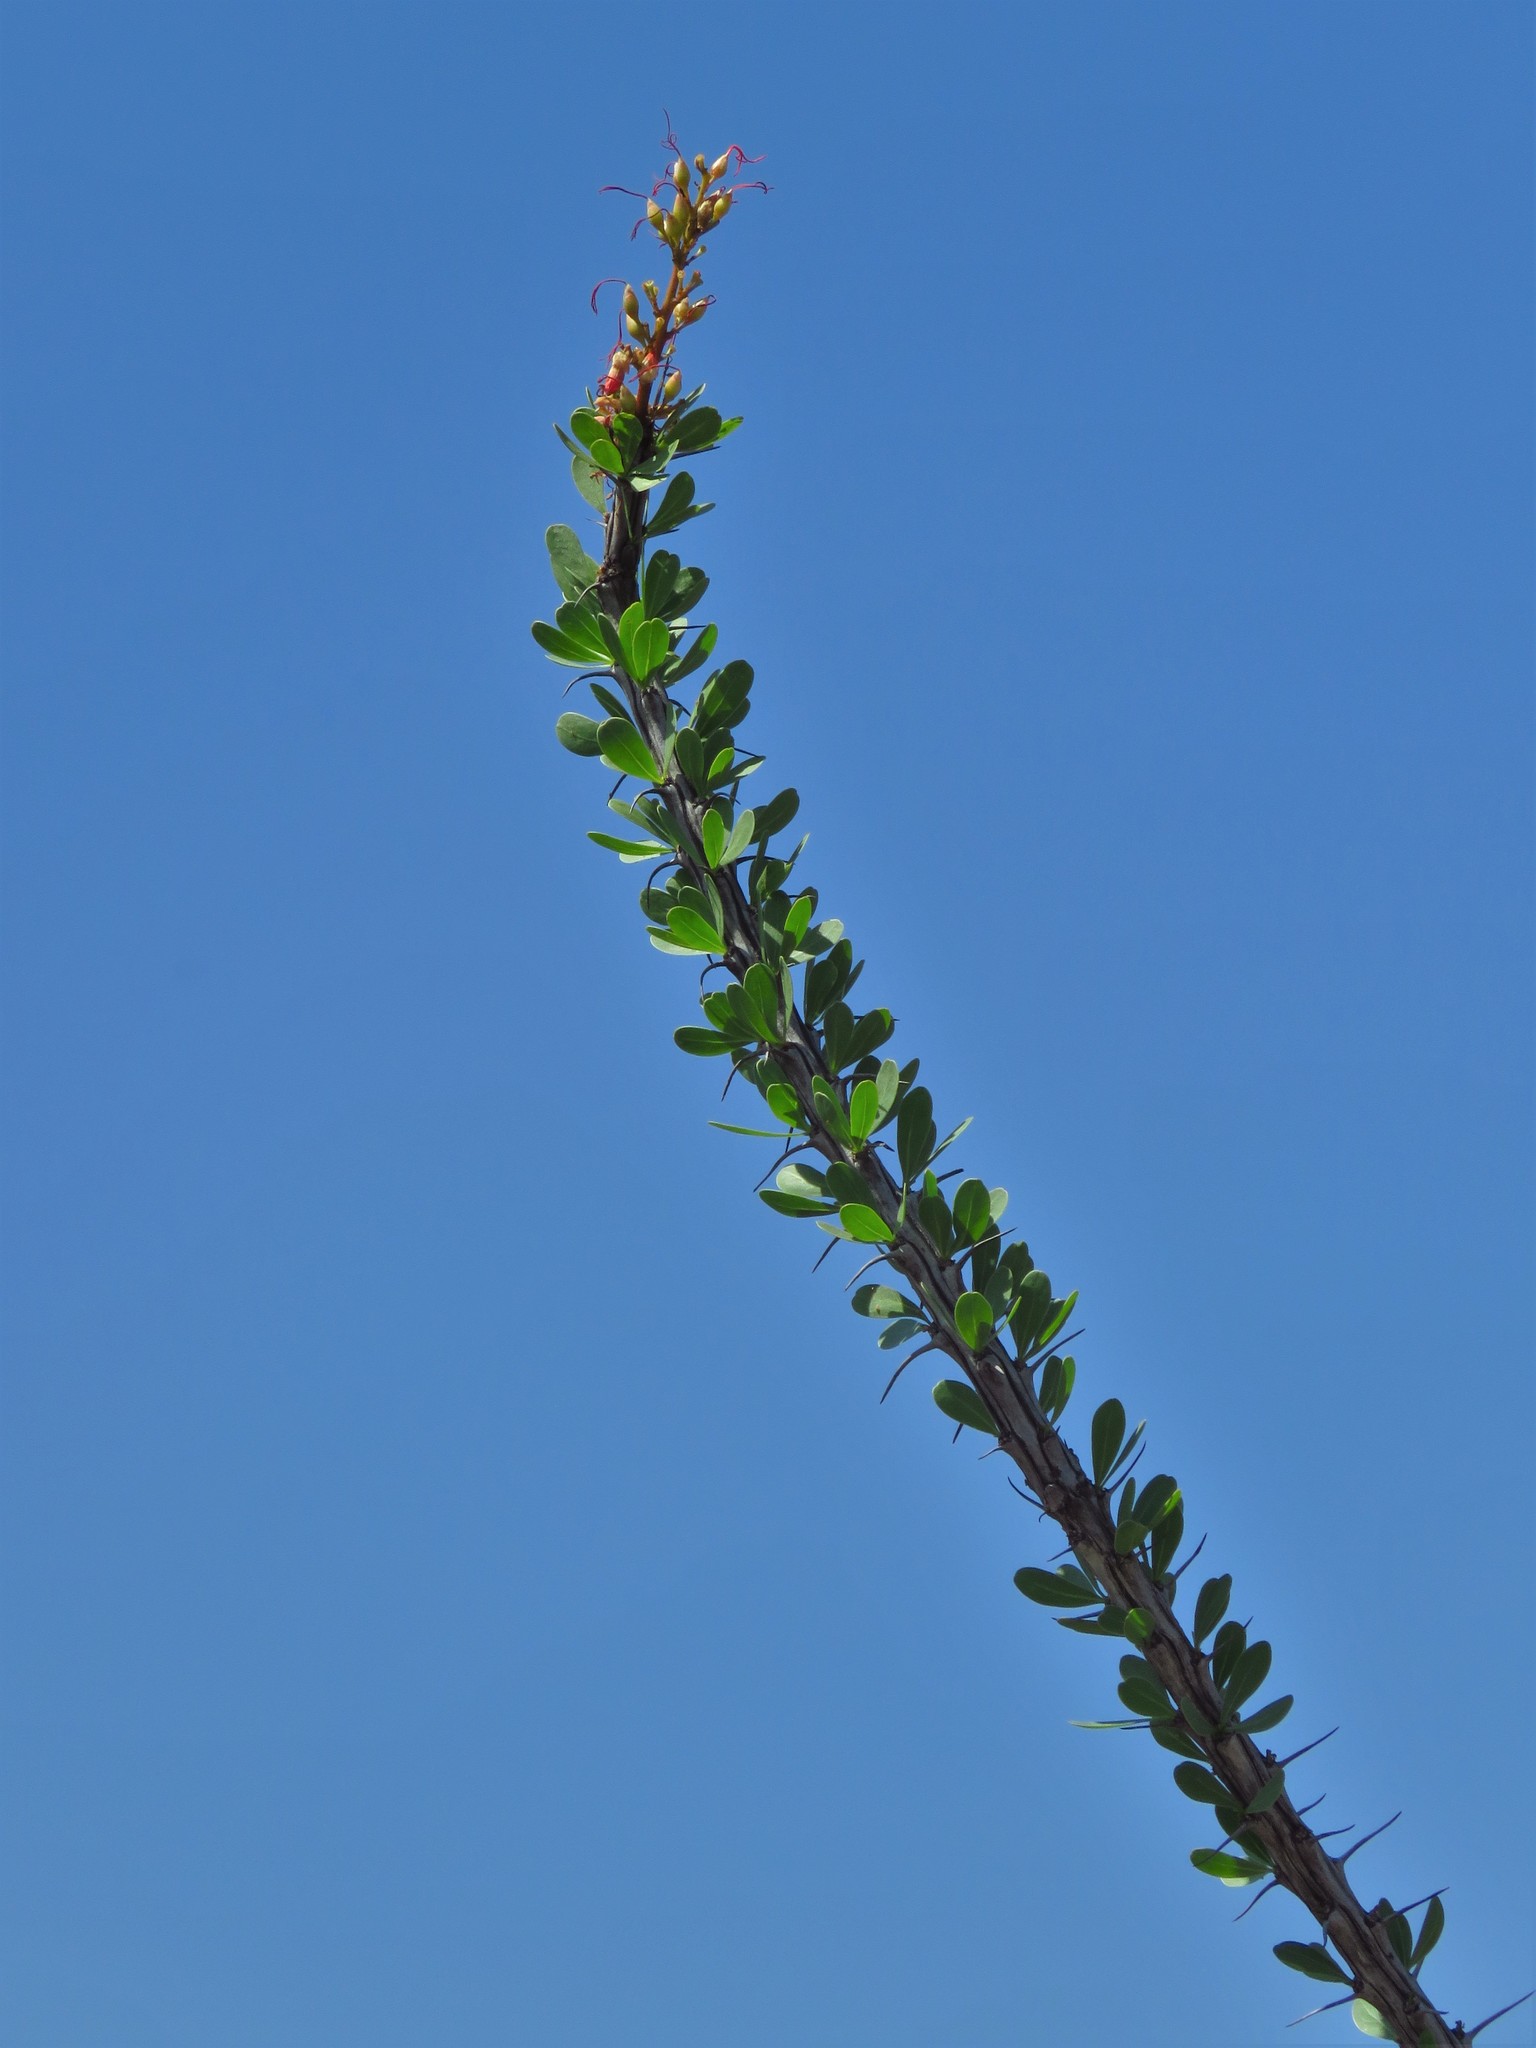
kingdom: Plantae
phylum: Tracheophyta
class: Magnoliopsida
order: Ericales
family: Fouquieriaceae
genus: Fouquieria
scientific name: Fouquieria splendens
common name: Vine-cactus
